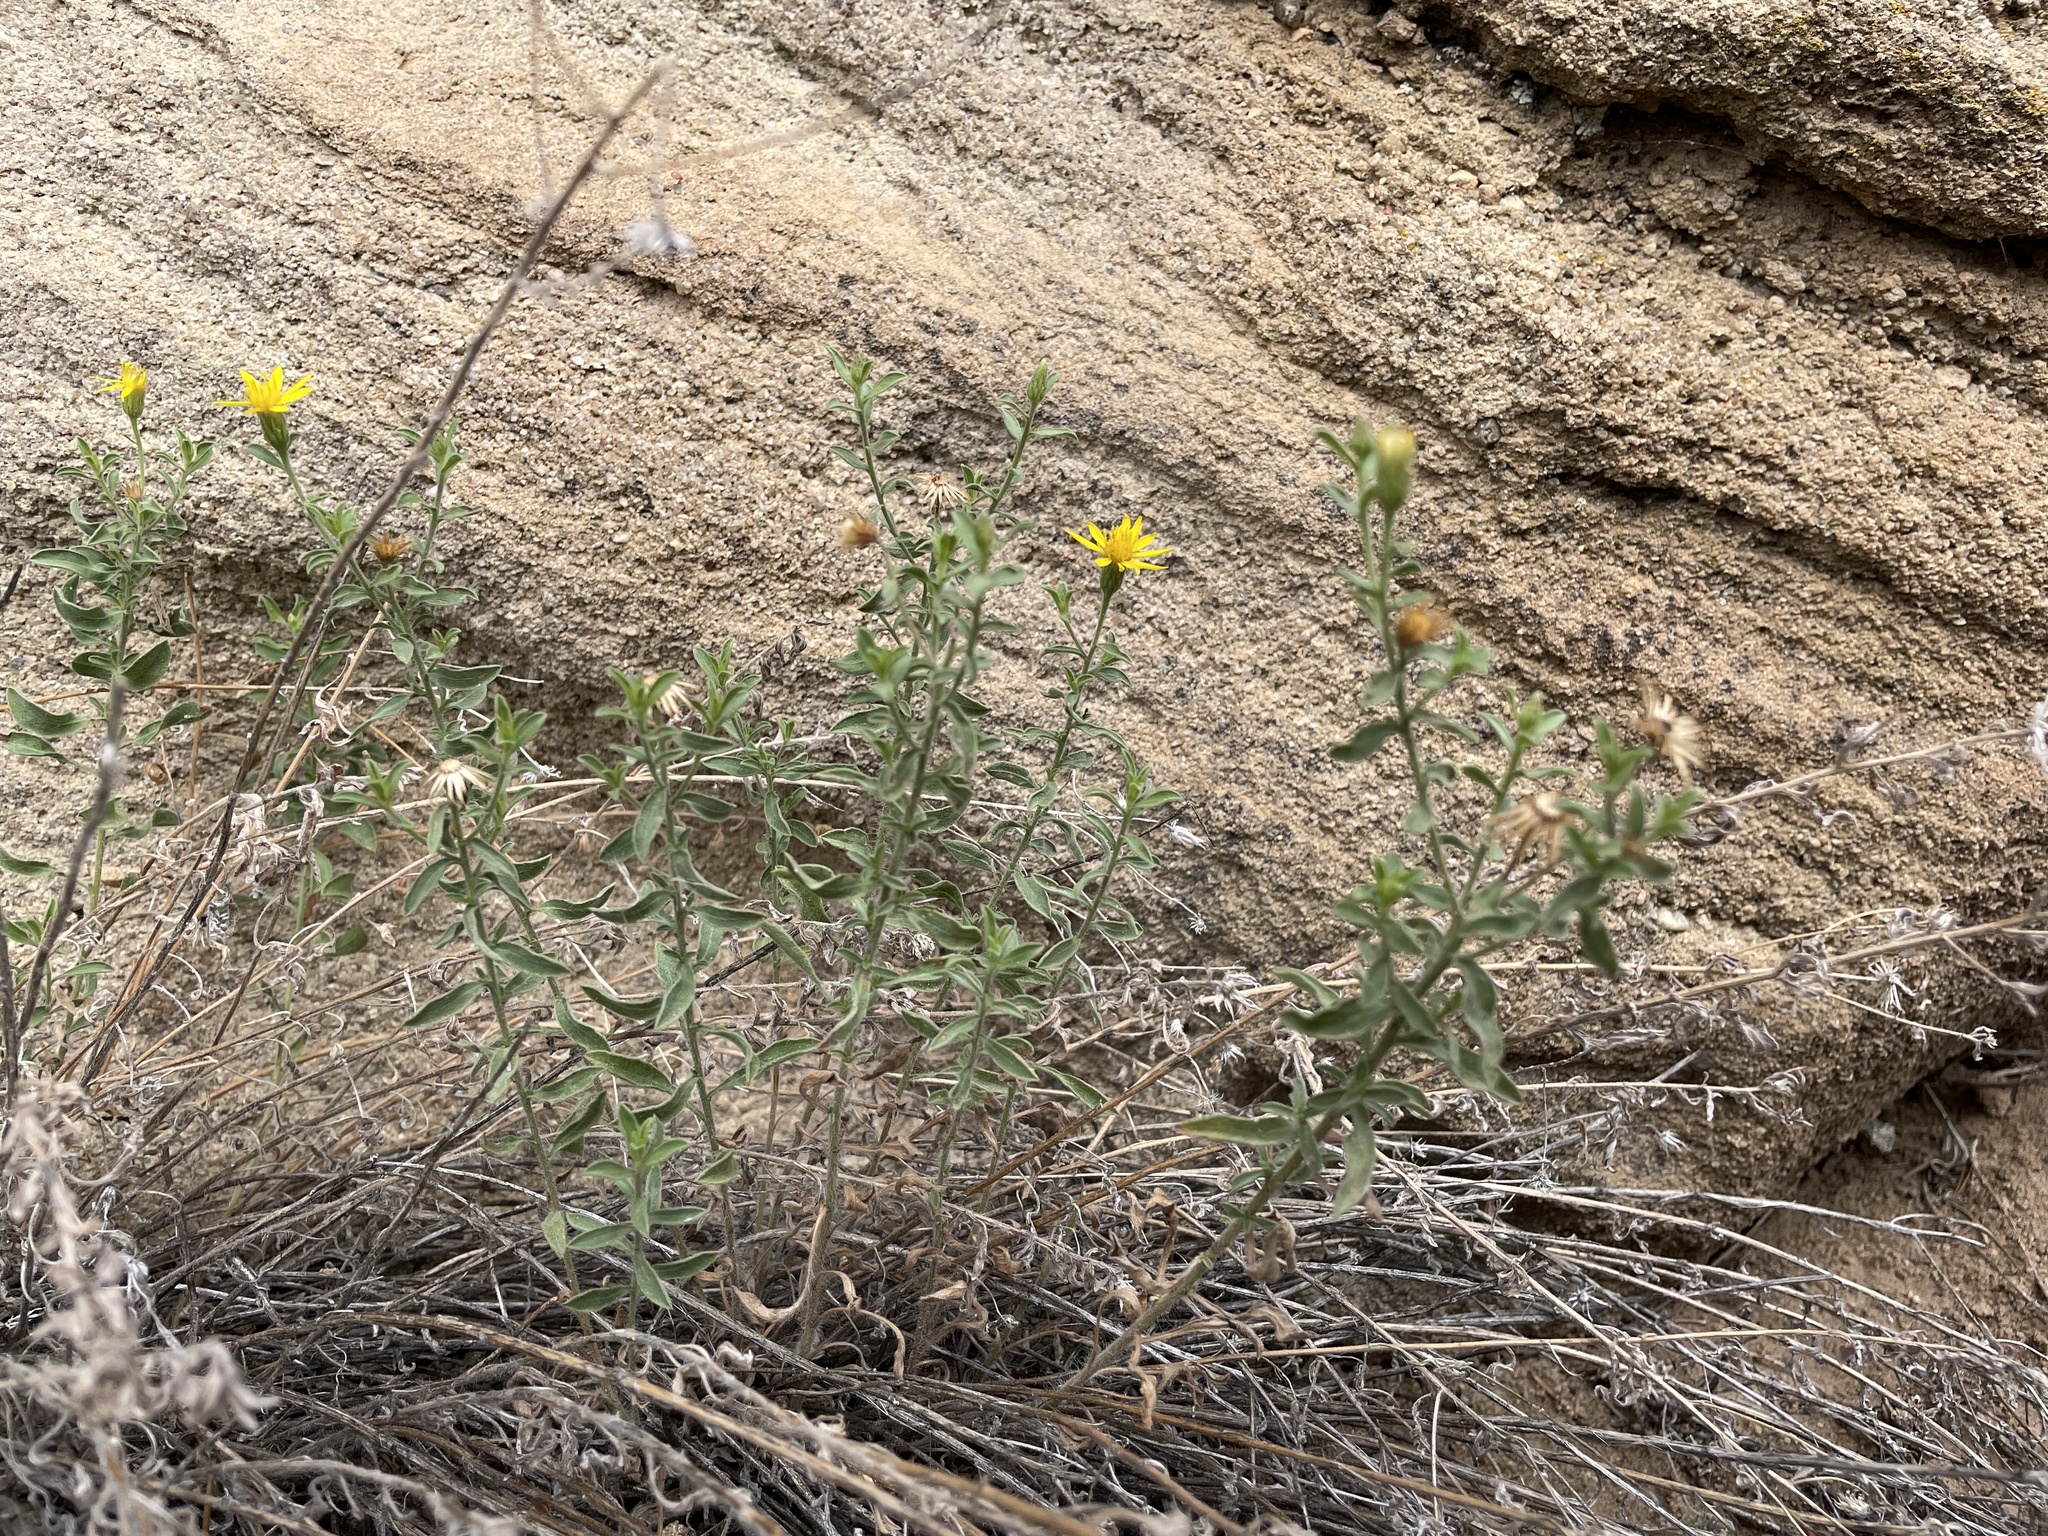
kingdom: Plantae
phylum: Tracheophyta
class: Magnoliopsida
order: Asterales
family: Asteraceae
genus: Heterotheca
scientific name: Heterotheca hirsutissima
